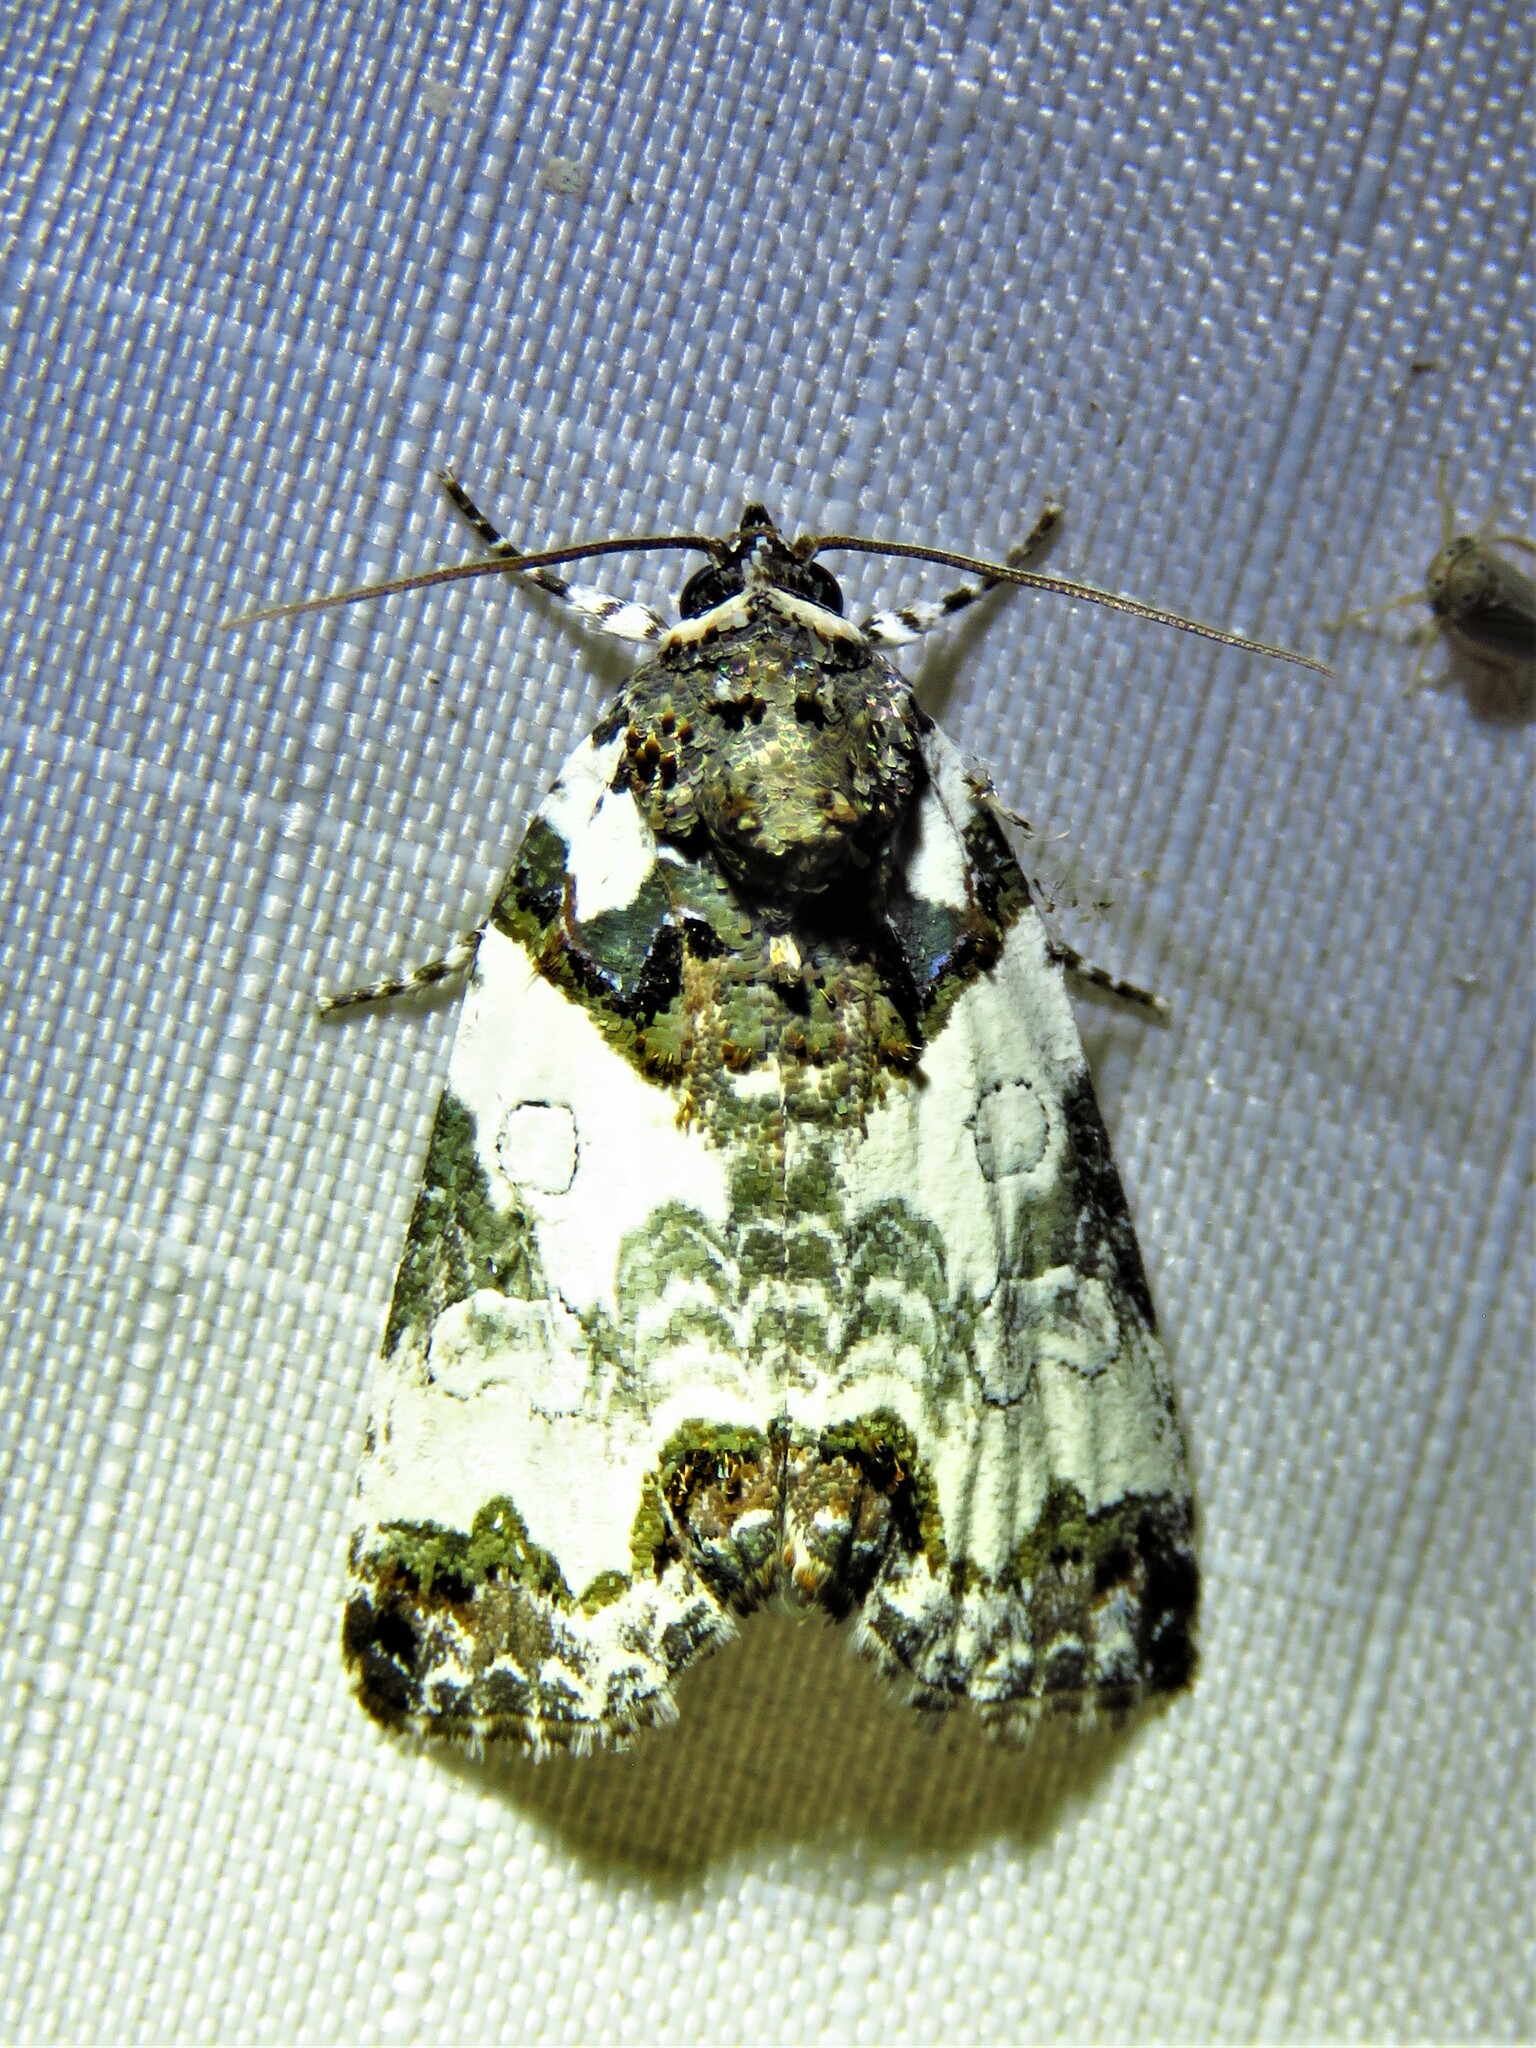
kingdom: Animalia
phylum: Arthropoda
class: Insecta
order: Lepidoptera
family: Noctuidae
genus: Cerma
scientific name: Cerma cerintha
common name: Tufted bird-dropping moth
